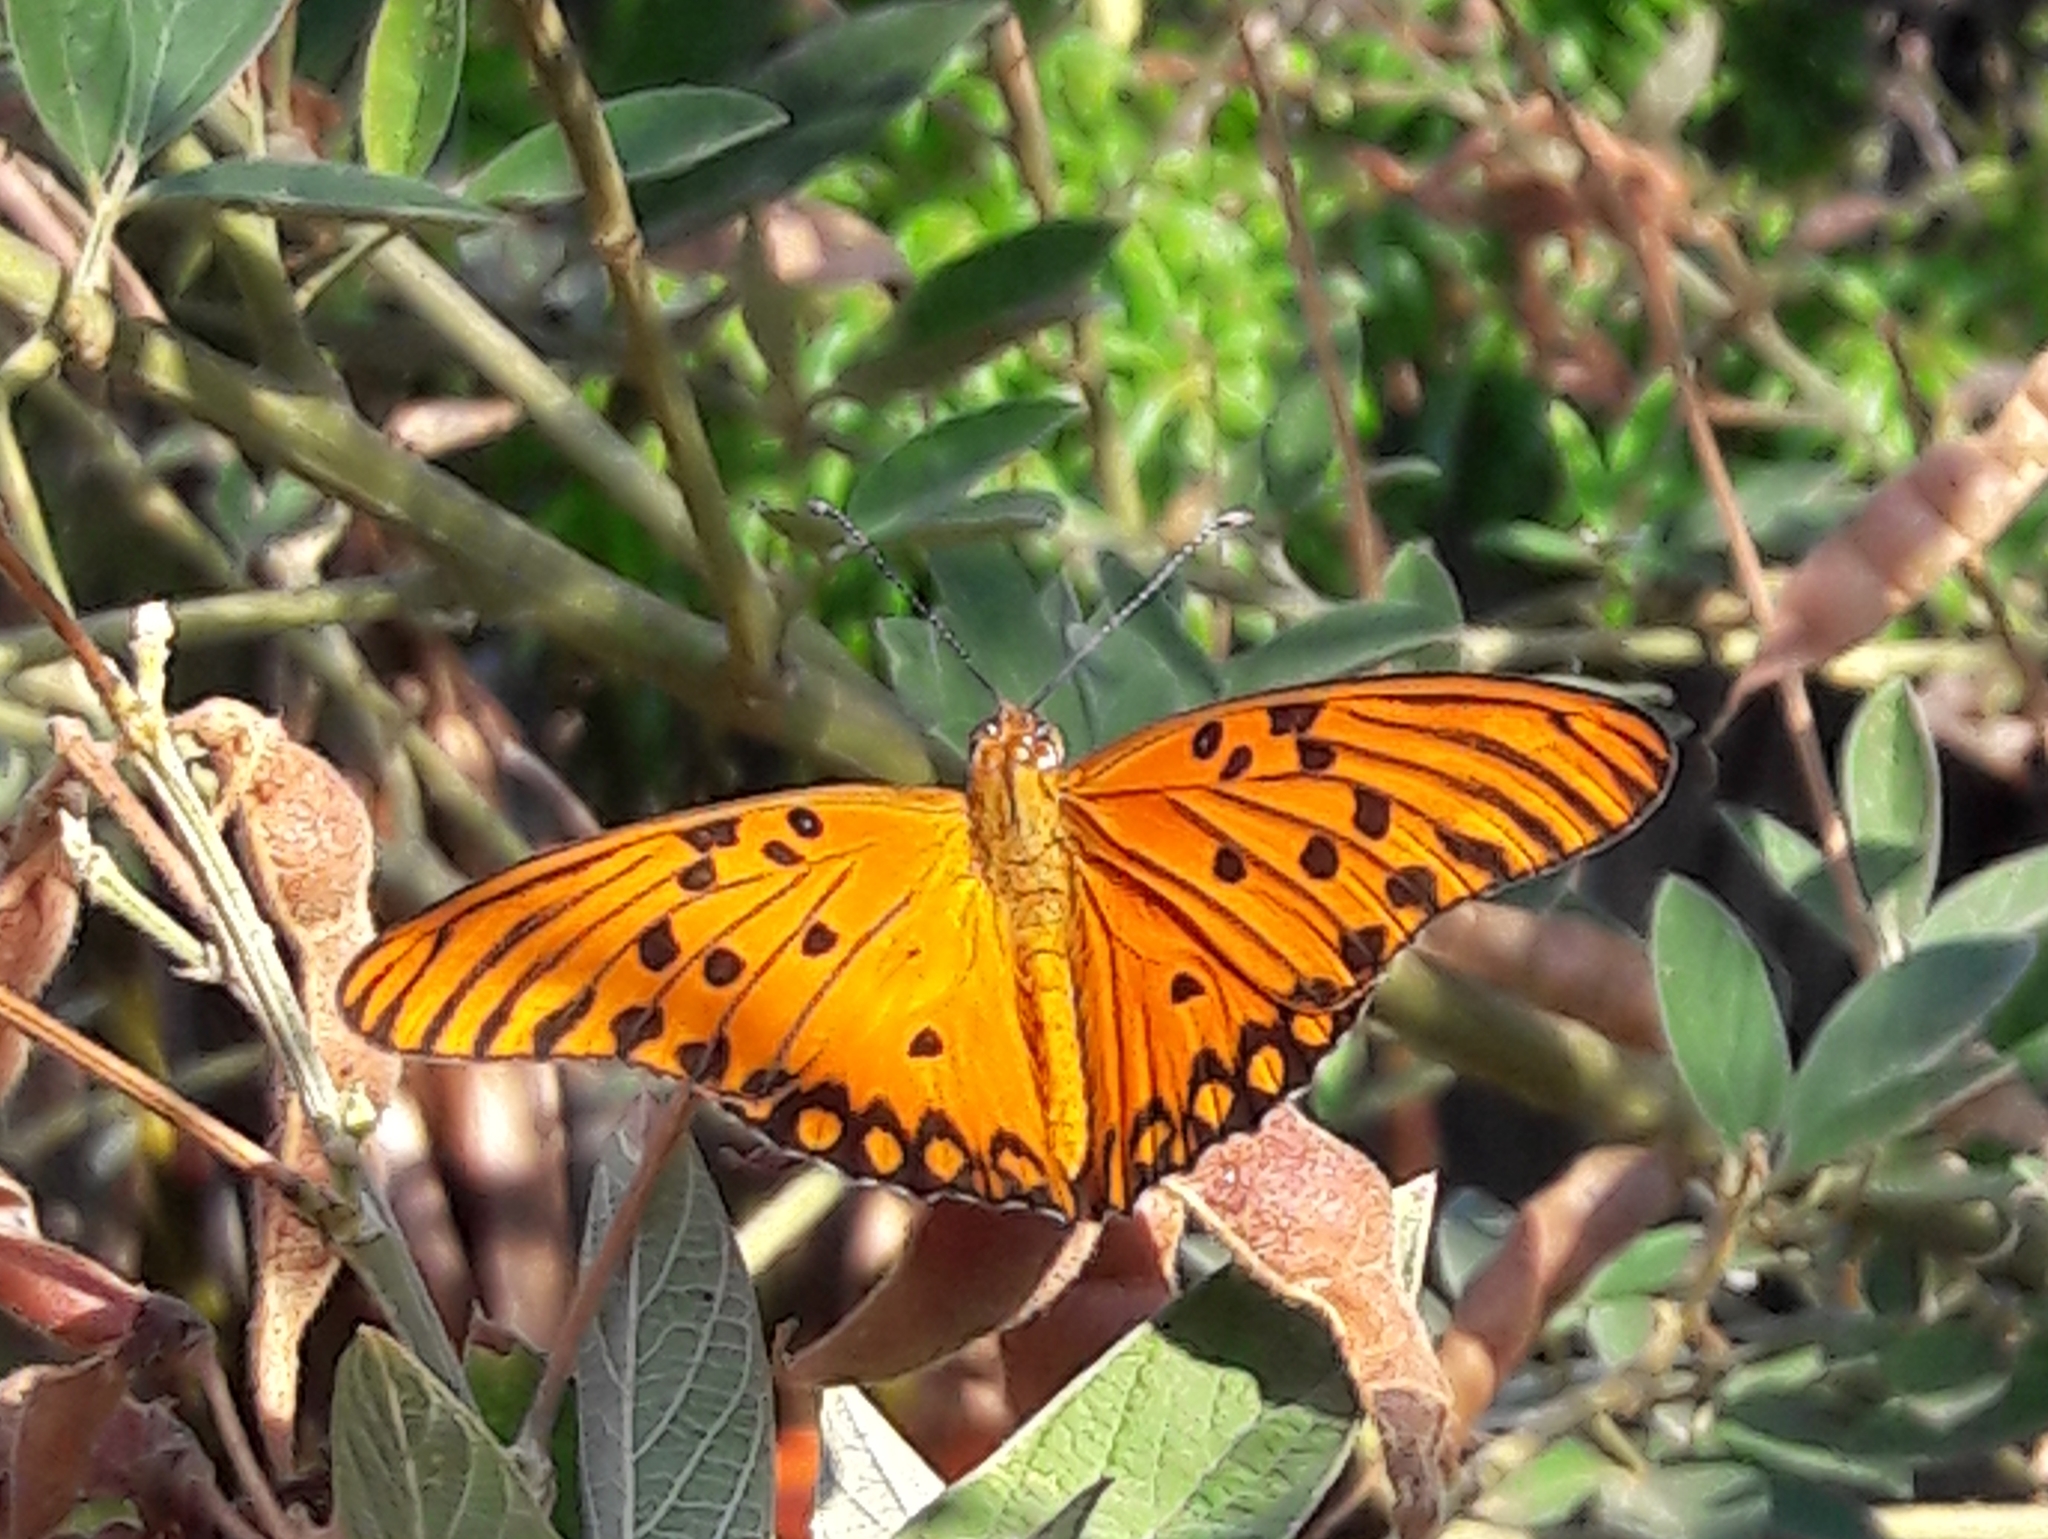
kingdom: Animalia
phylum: Arthropoda
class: Insecta
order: Lepidoptera
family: Nymphalidae
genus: Dione
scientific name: Dione vanillae
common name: Gulf fritillary
